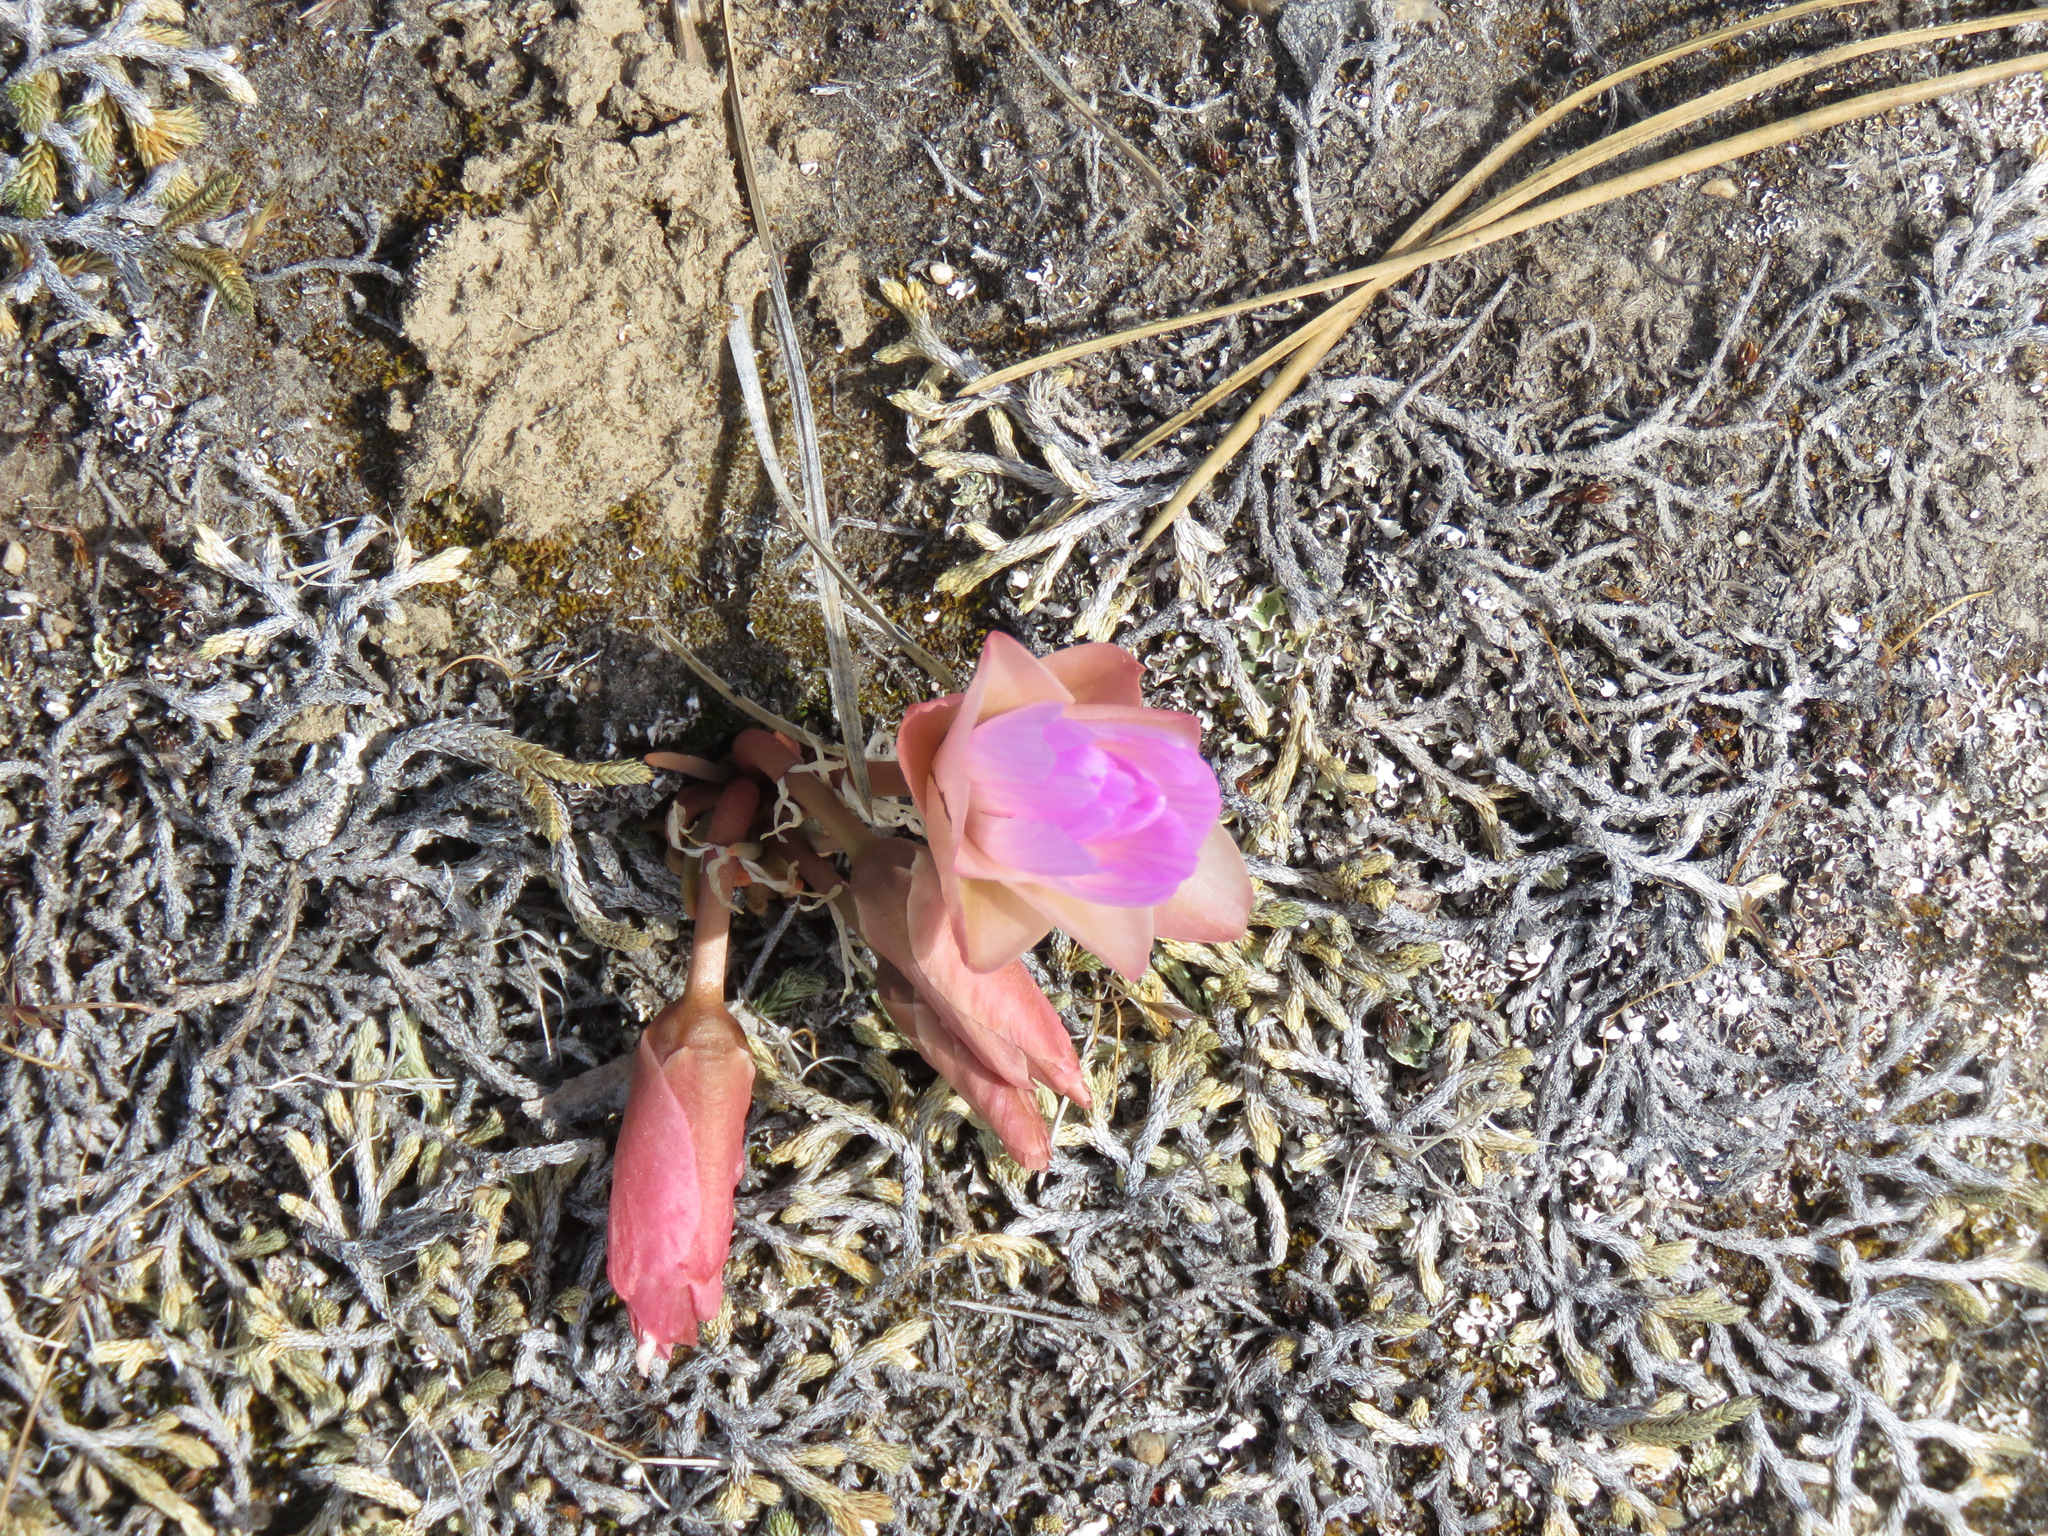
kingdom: Plantae
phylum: Tracheophyta
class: Magnoliopsida
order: Caryophyllales
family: Montiaceae
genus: Lewisia
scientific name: Lewisia rediviva
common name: Bitter-root
